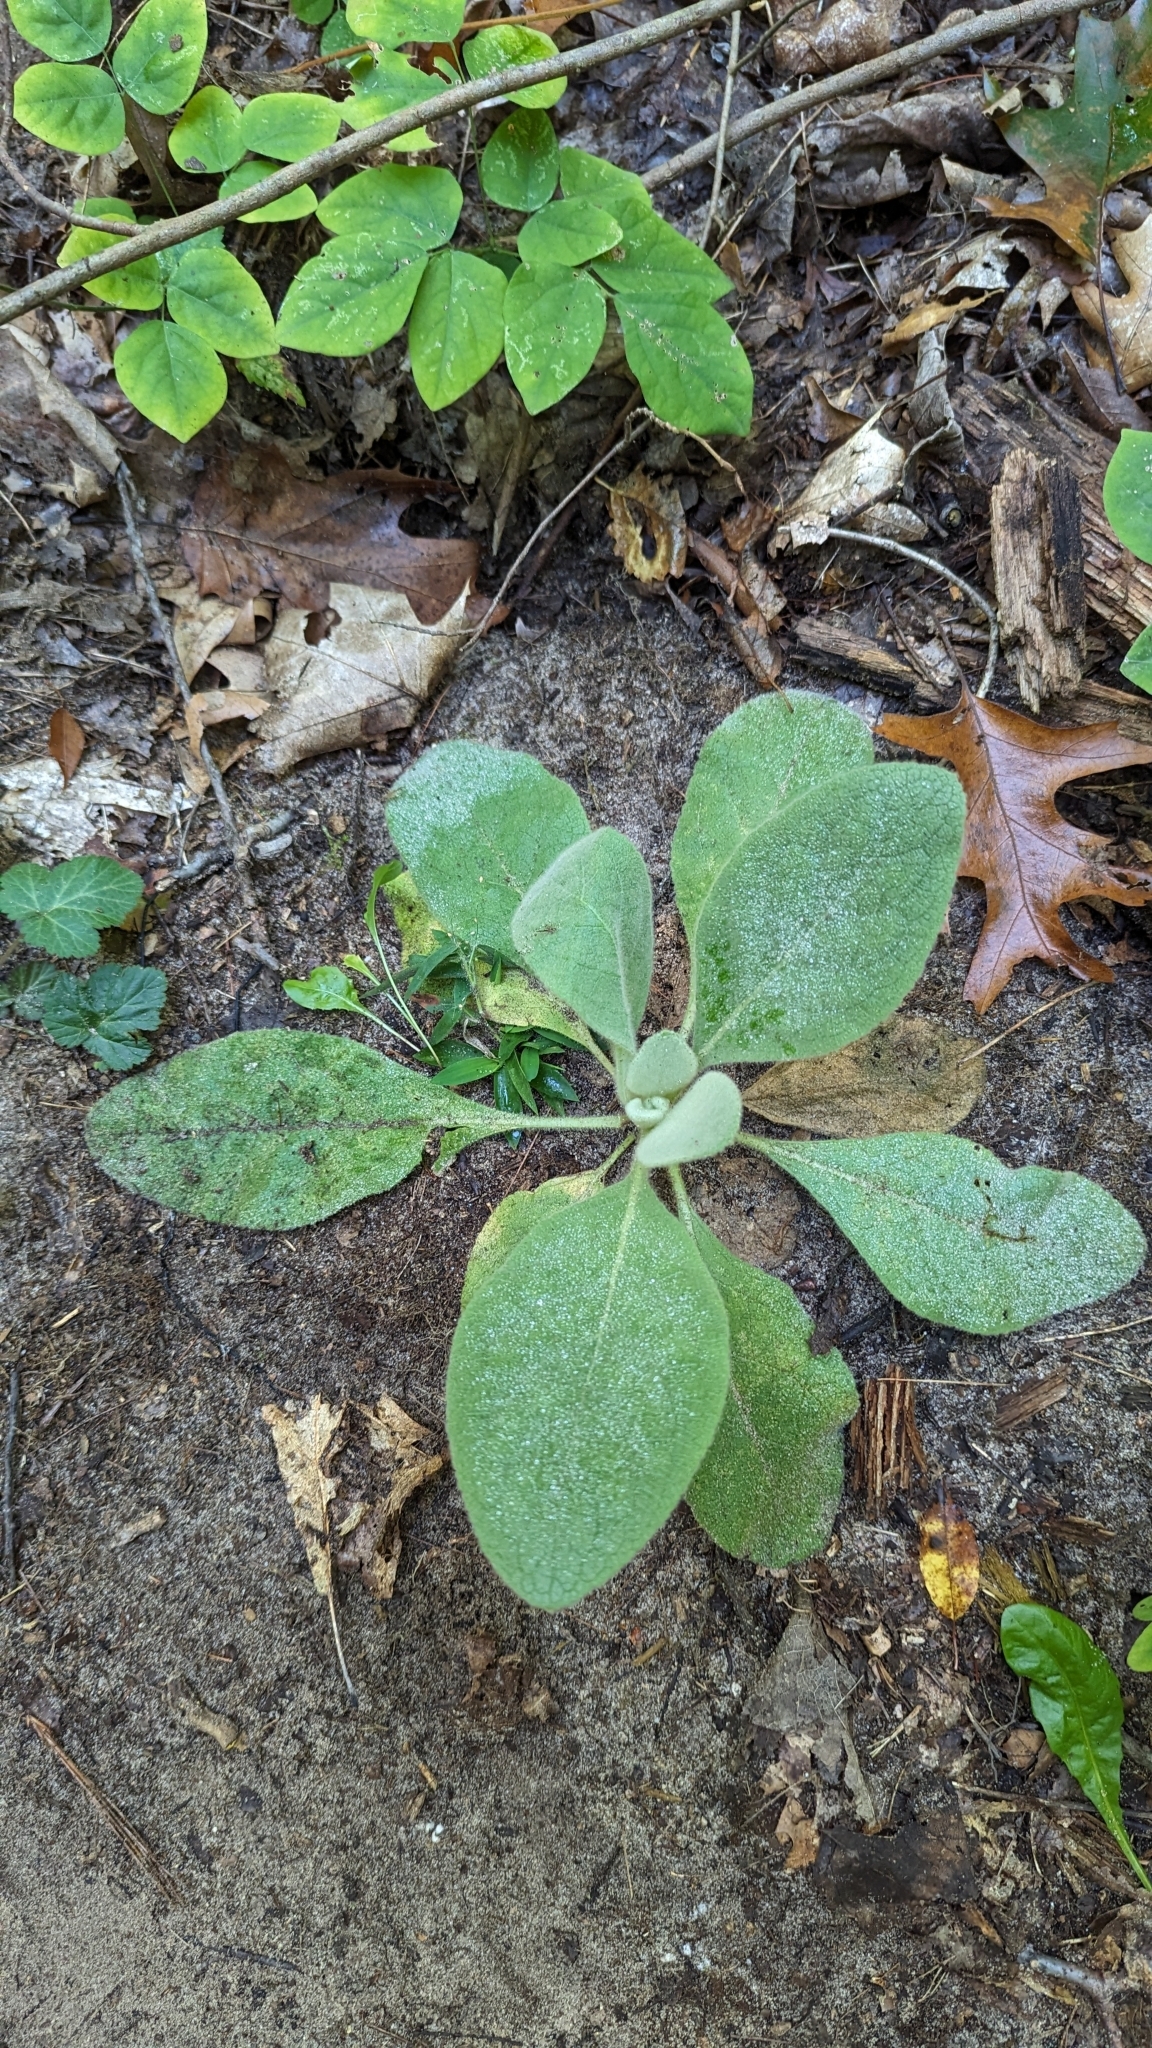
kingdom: Plantae
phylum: Tracheophyta
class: Magnoliopsida
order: Lamiales
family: Scrophulariaceae
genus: Verbascum
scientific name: Verbascum thapsus
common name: Common mullein
